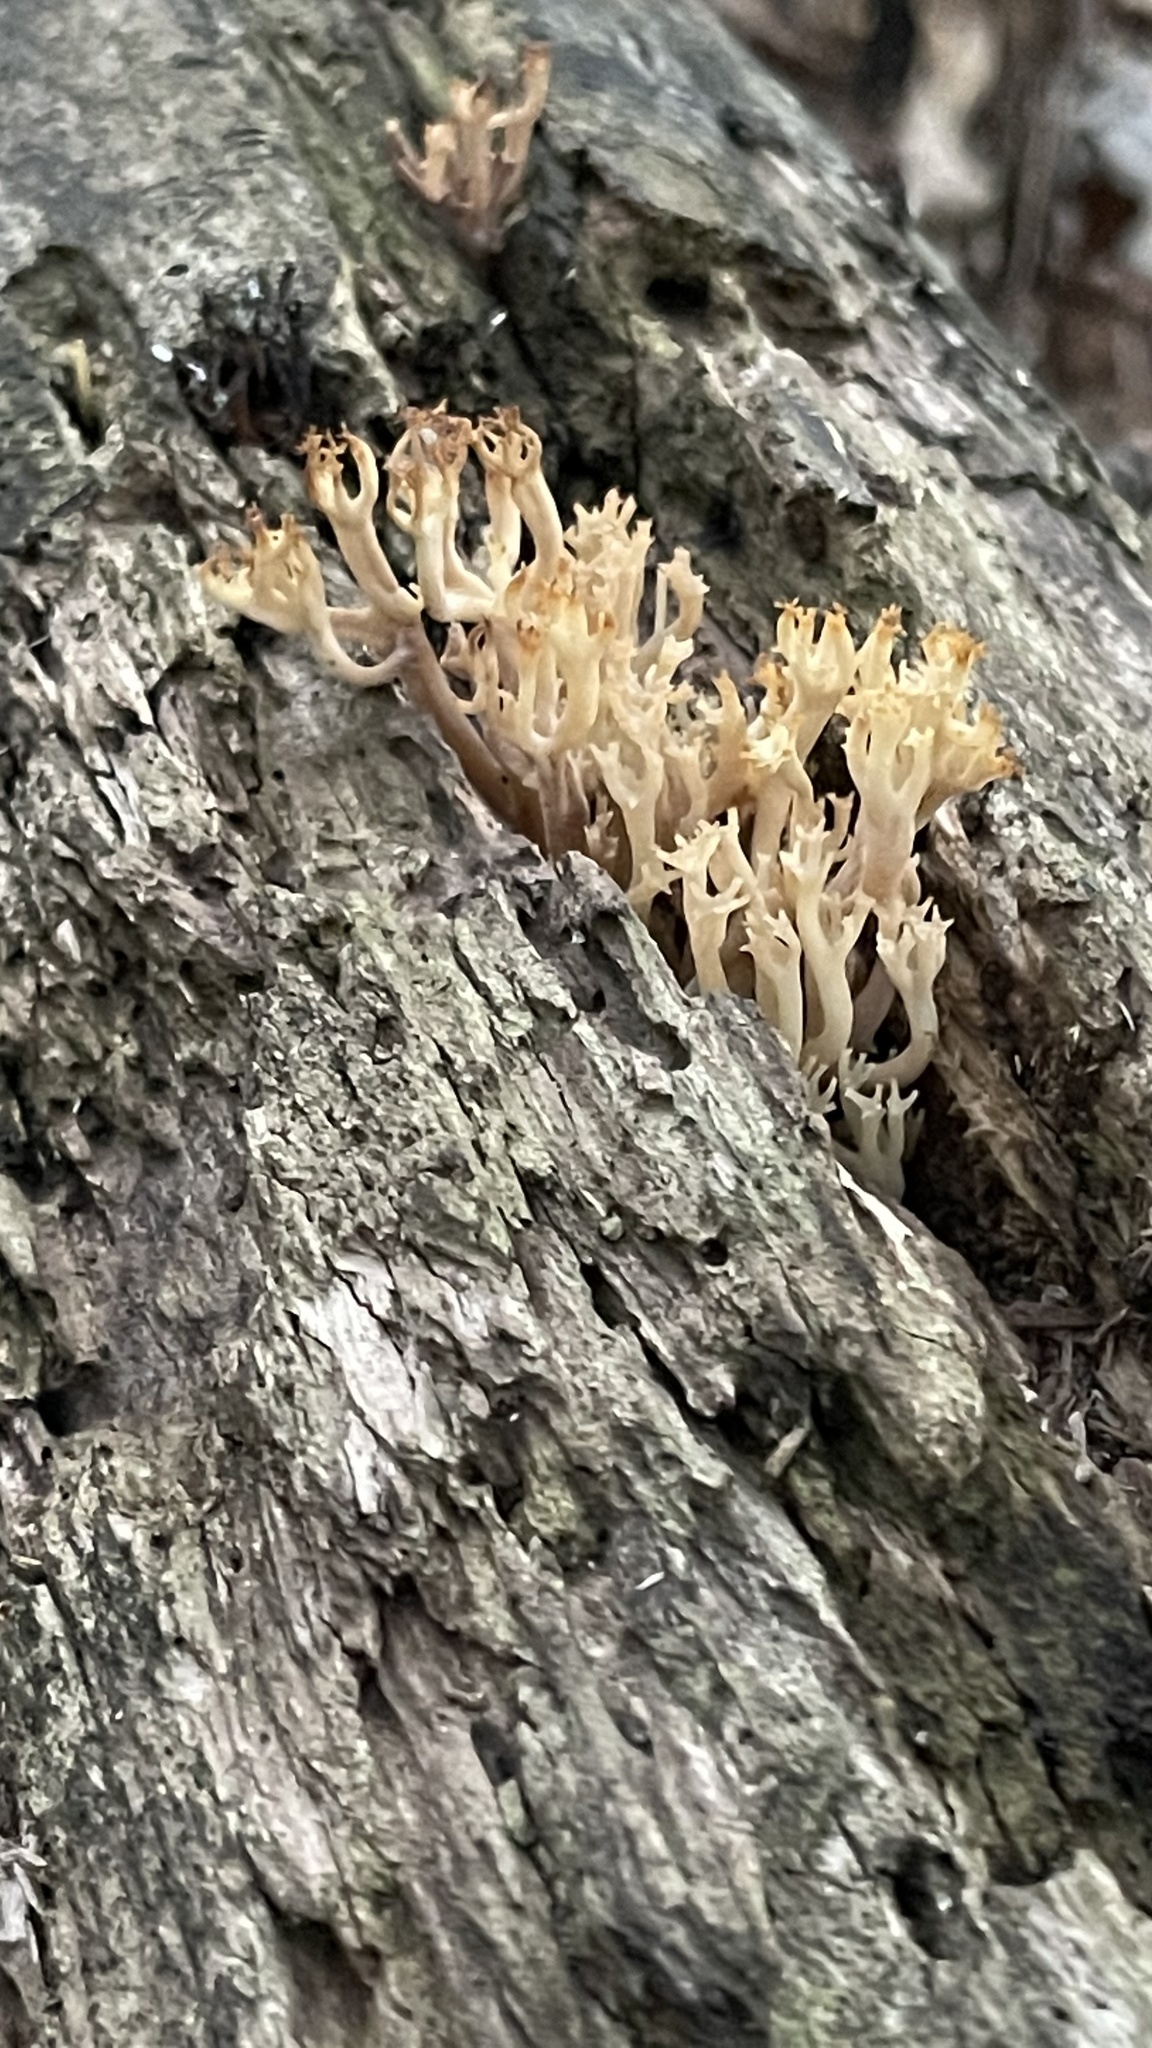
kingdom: Fungi
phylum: Basidiomycota
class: Agaricomycetes
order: Russulales
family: Auriscalpiaceae
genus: Artomyces
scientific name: Artomyces pyxidatus
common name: Crown-tipped coral fungus
